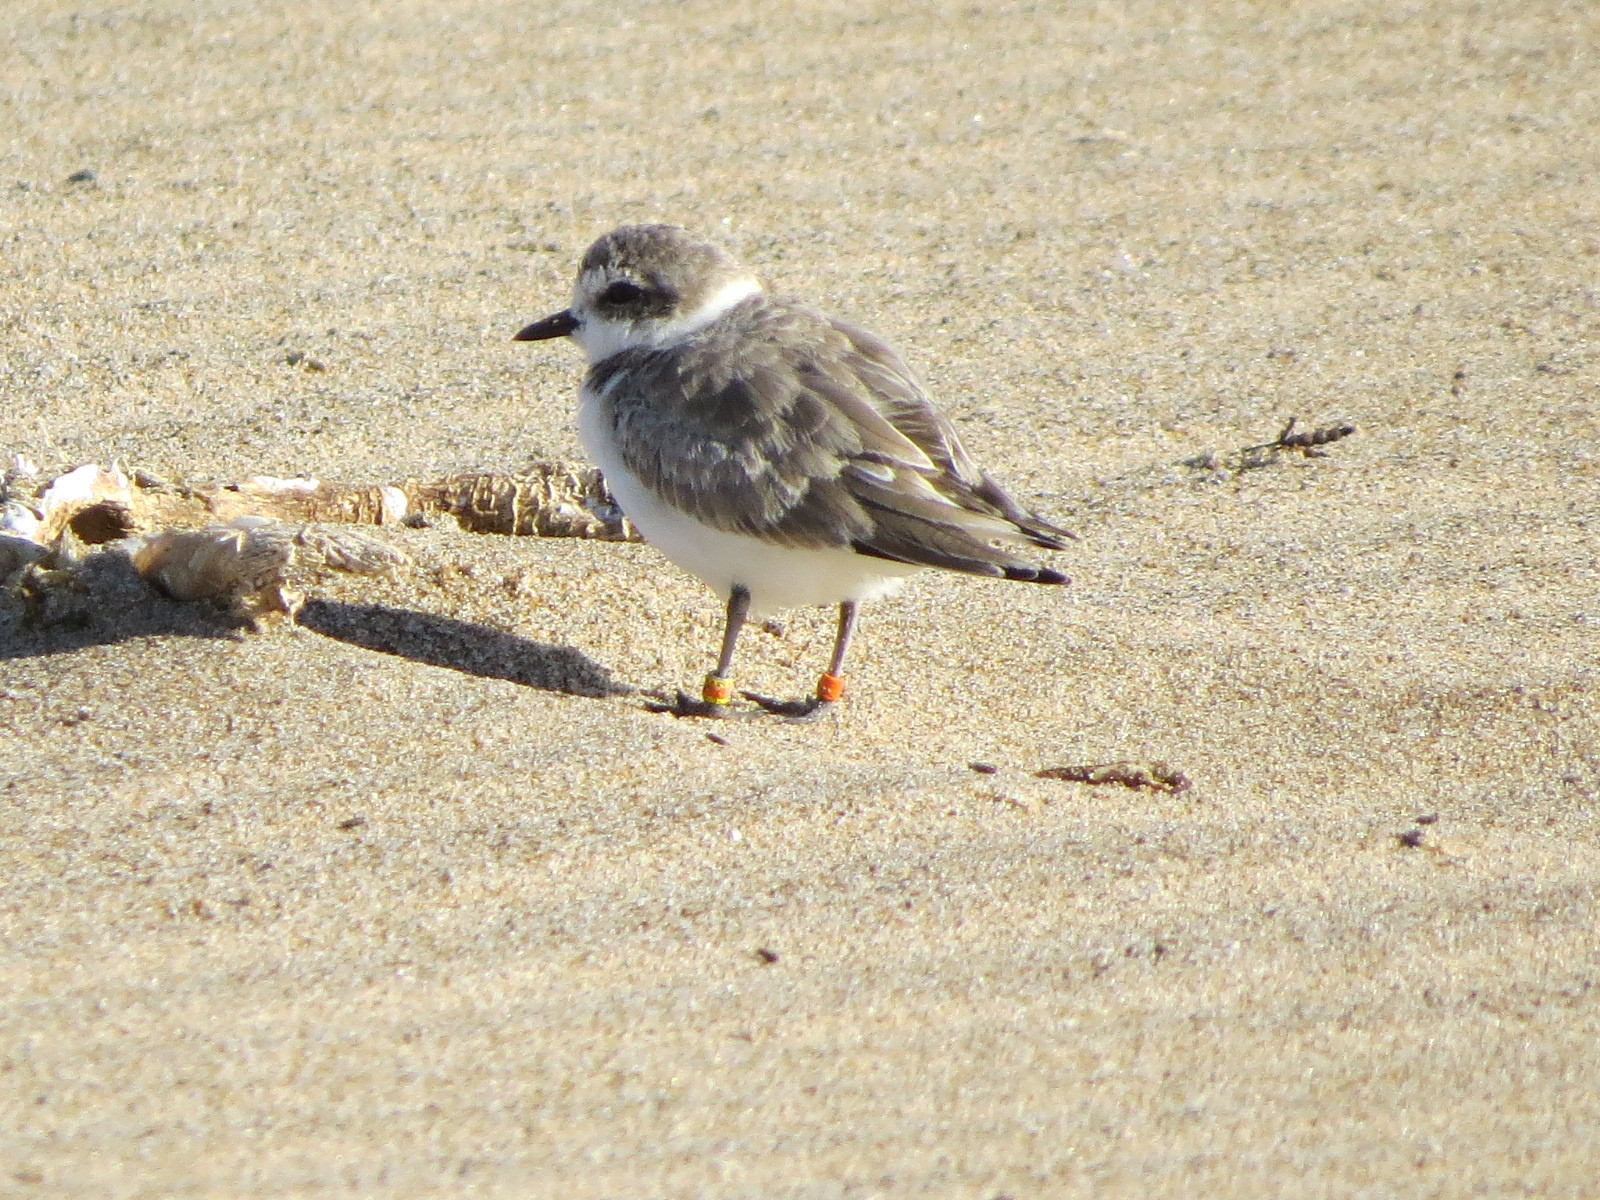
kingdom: Animalia
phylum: Chordata
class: Aves
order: Charadriiformes
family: Charadriidae
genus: Anarhynchus
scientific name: Anarhynchus
